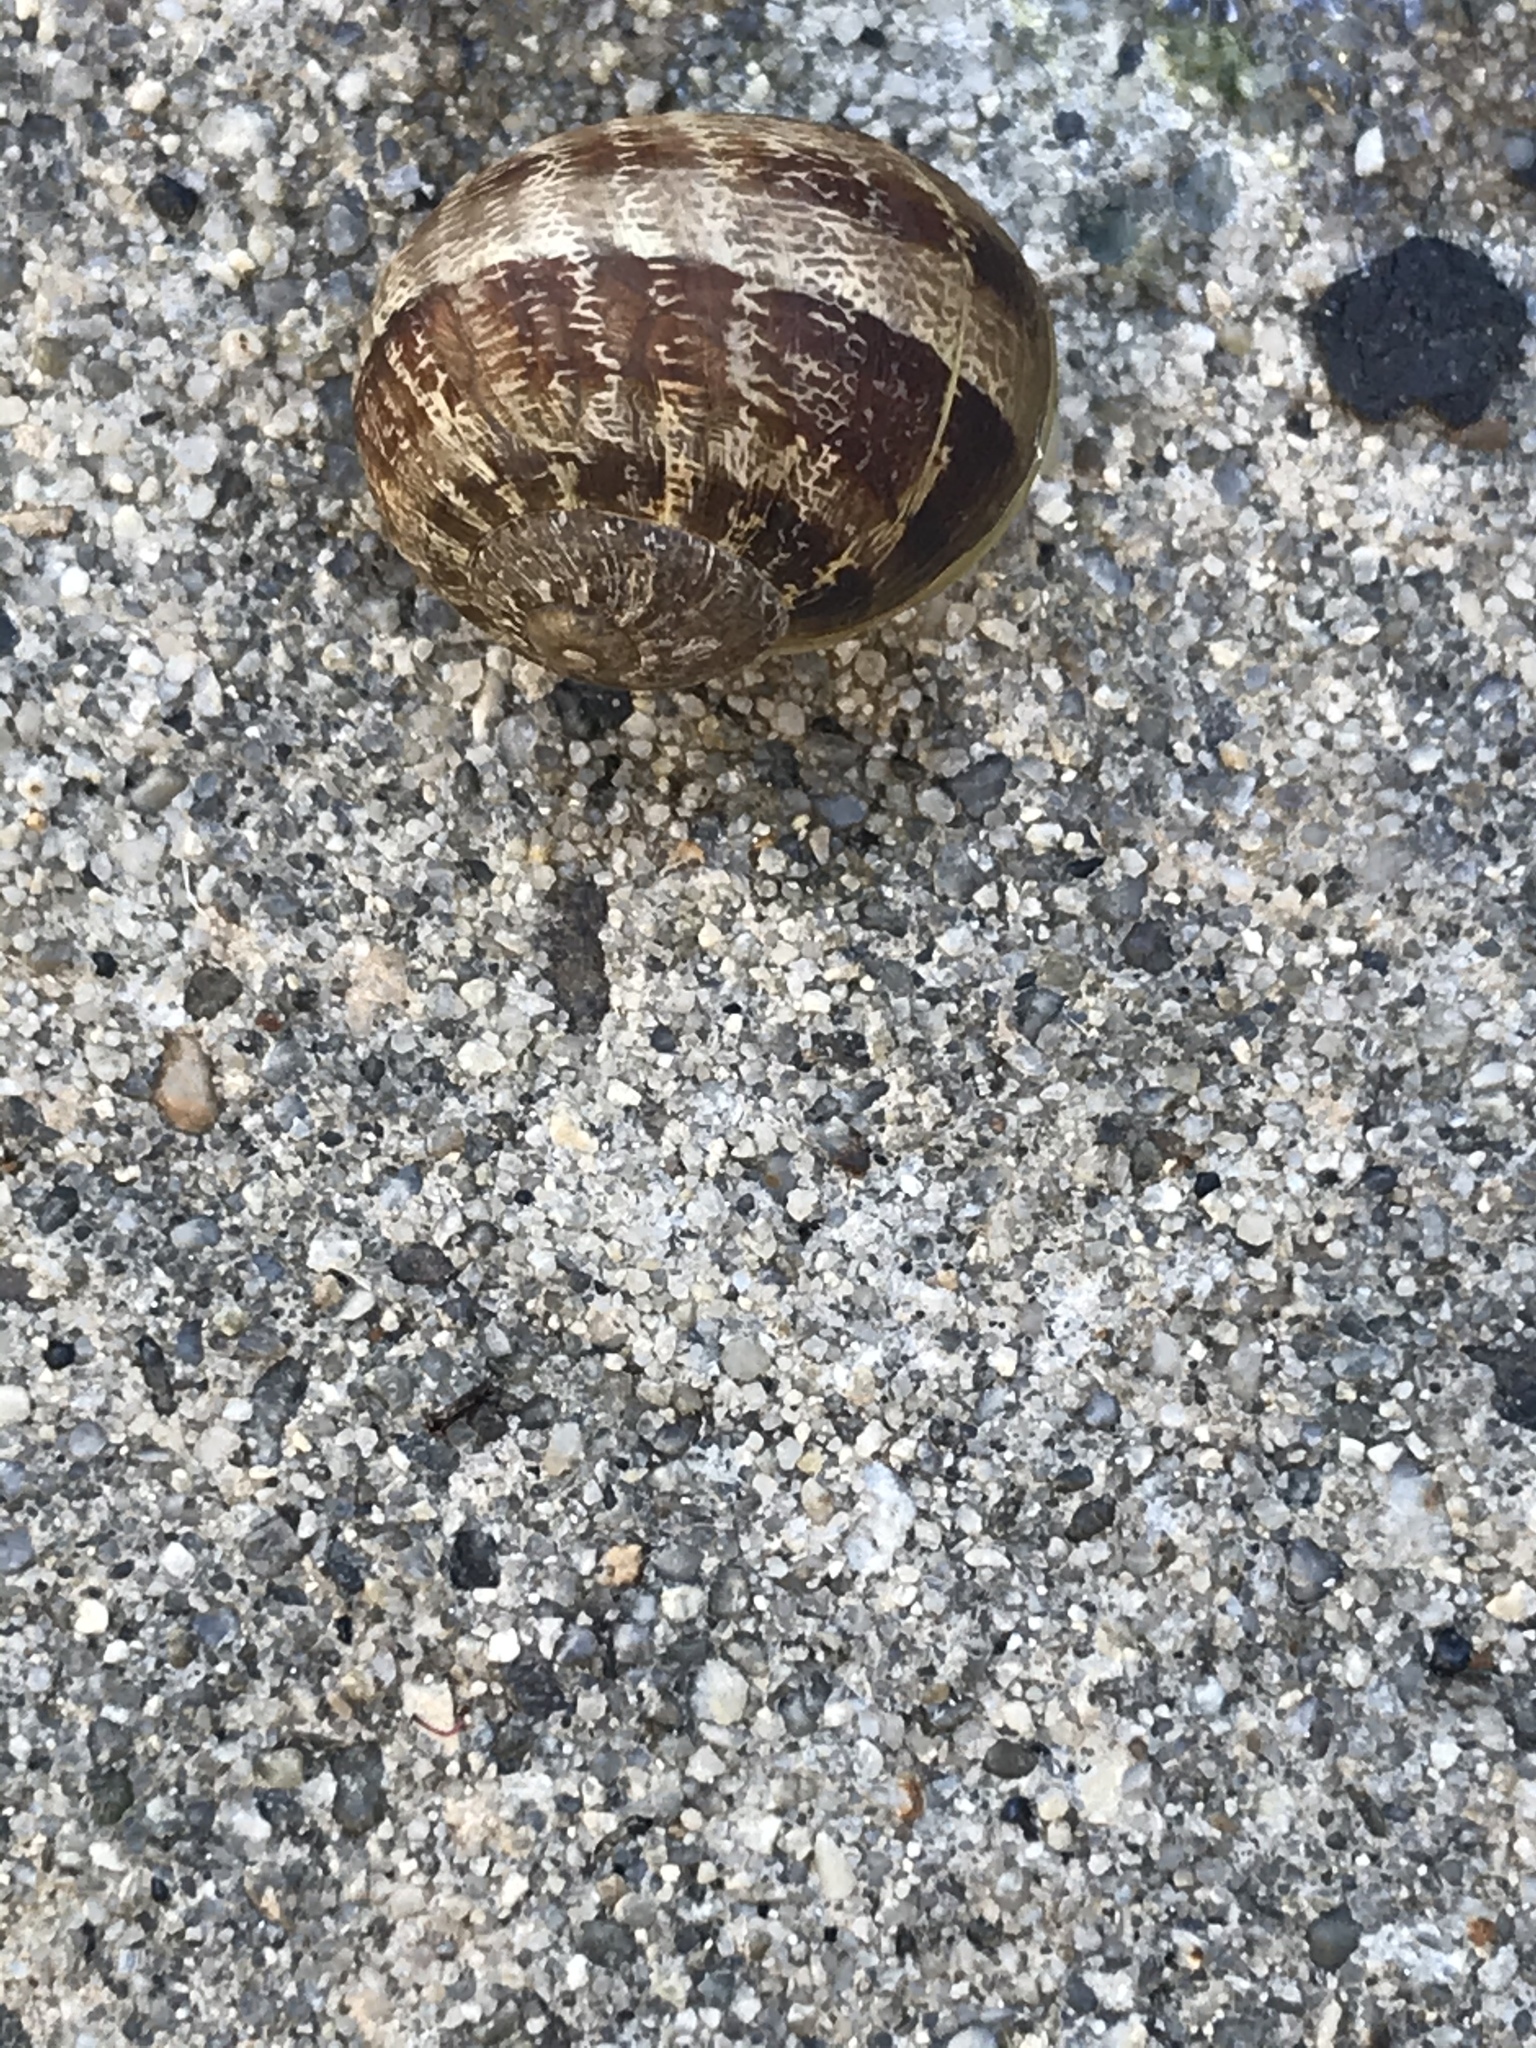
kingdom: Animalia
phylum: Mollusca
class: Gastropoda
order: Stylommatophora
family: Helicidae
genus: Cornu
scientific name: Cornu aspersum
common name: Brown garden snail
